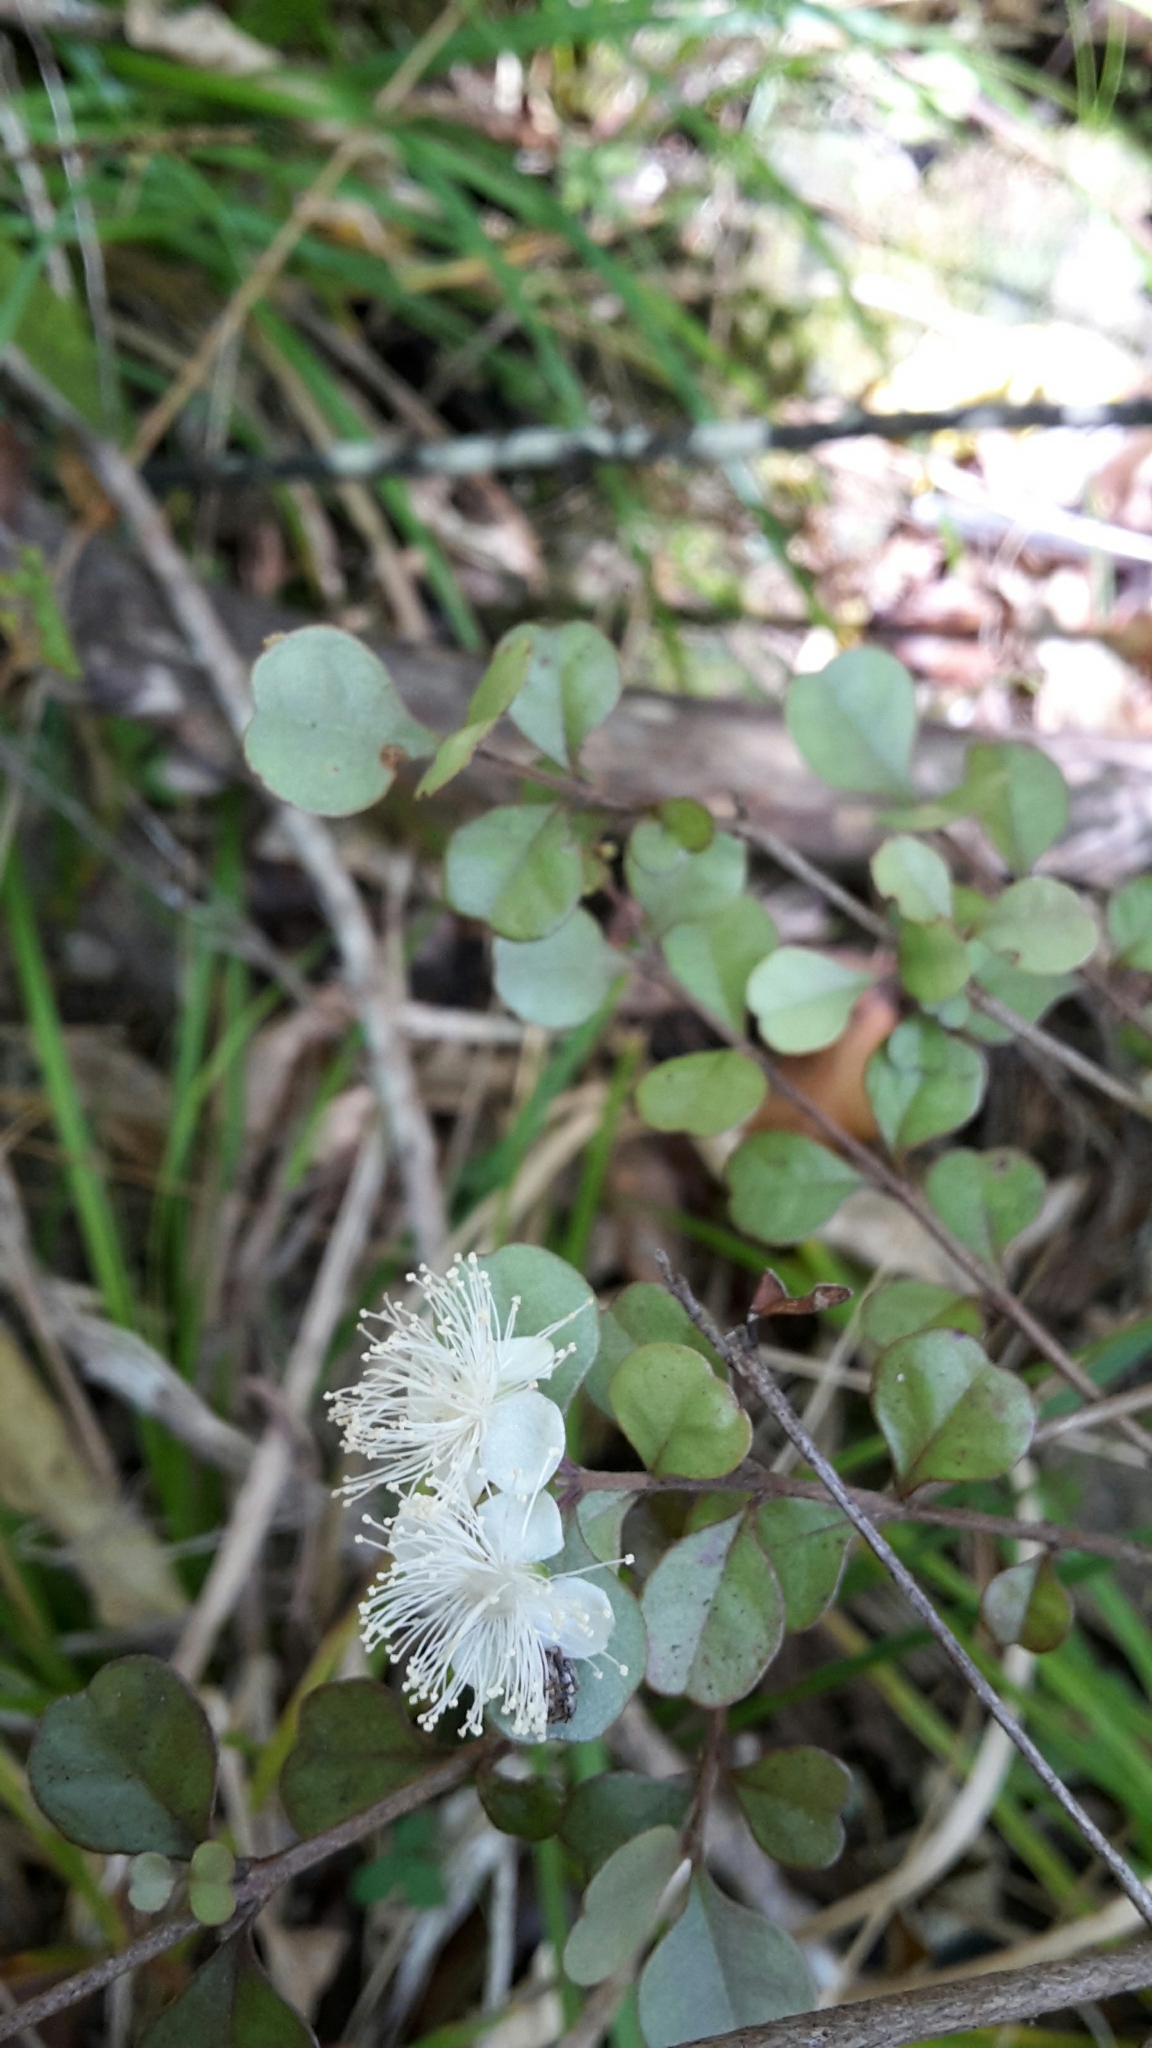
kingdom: Plantae
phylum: Tracheophyta
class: Magnoliopsida
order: Myrtales
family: Myrtaceae
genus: Lophomyrtus
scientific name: Lophomyrtus obcordata
